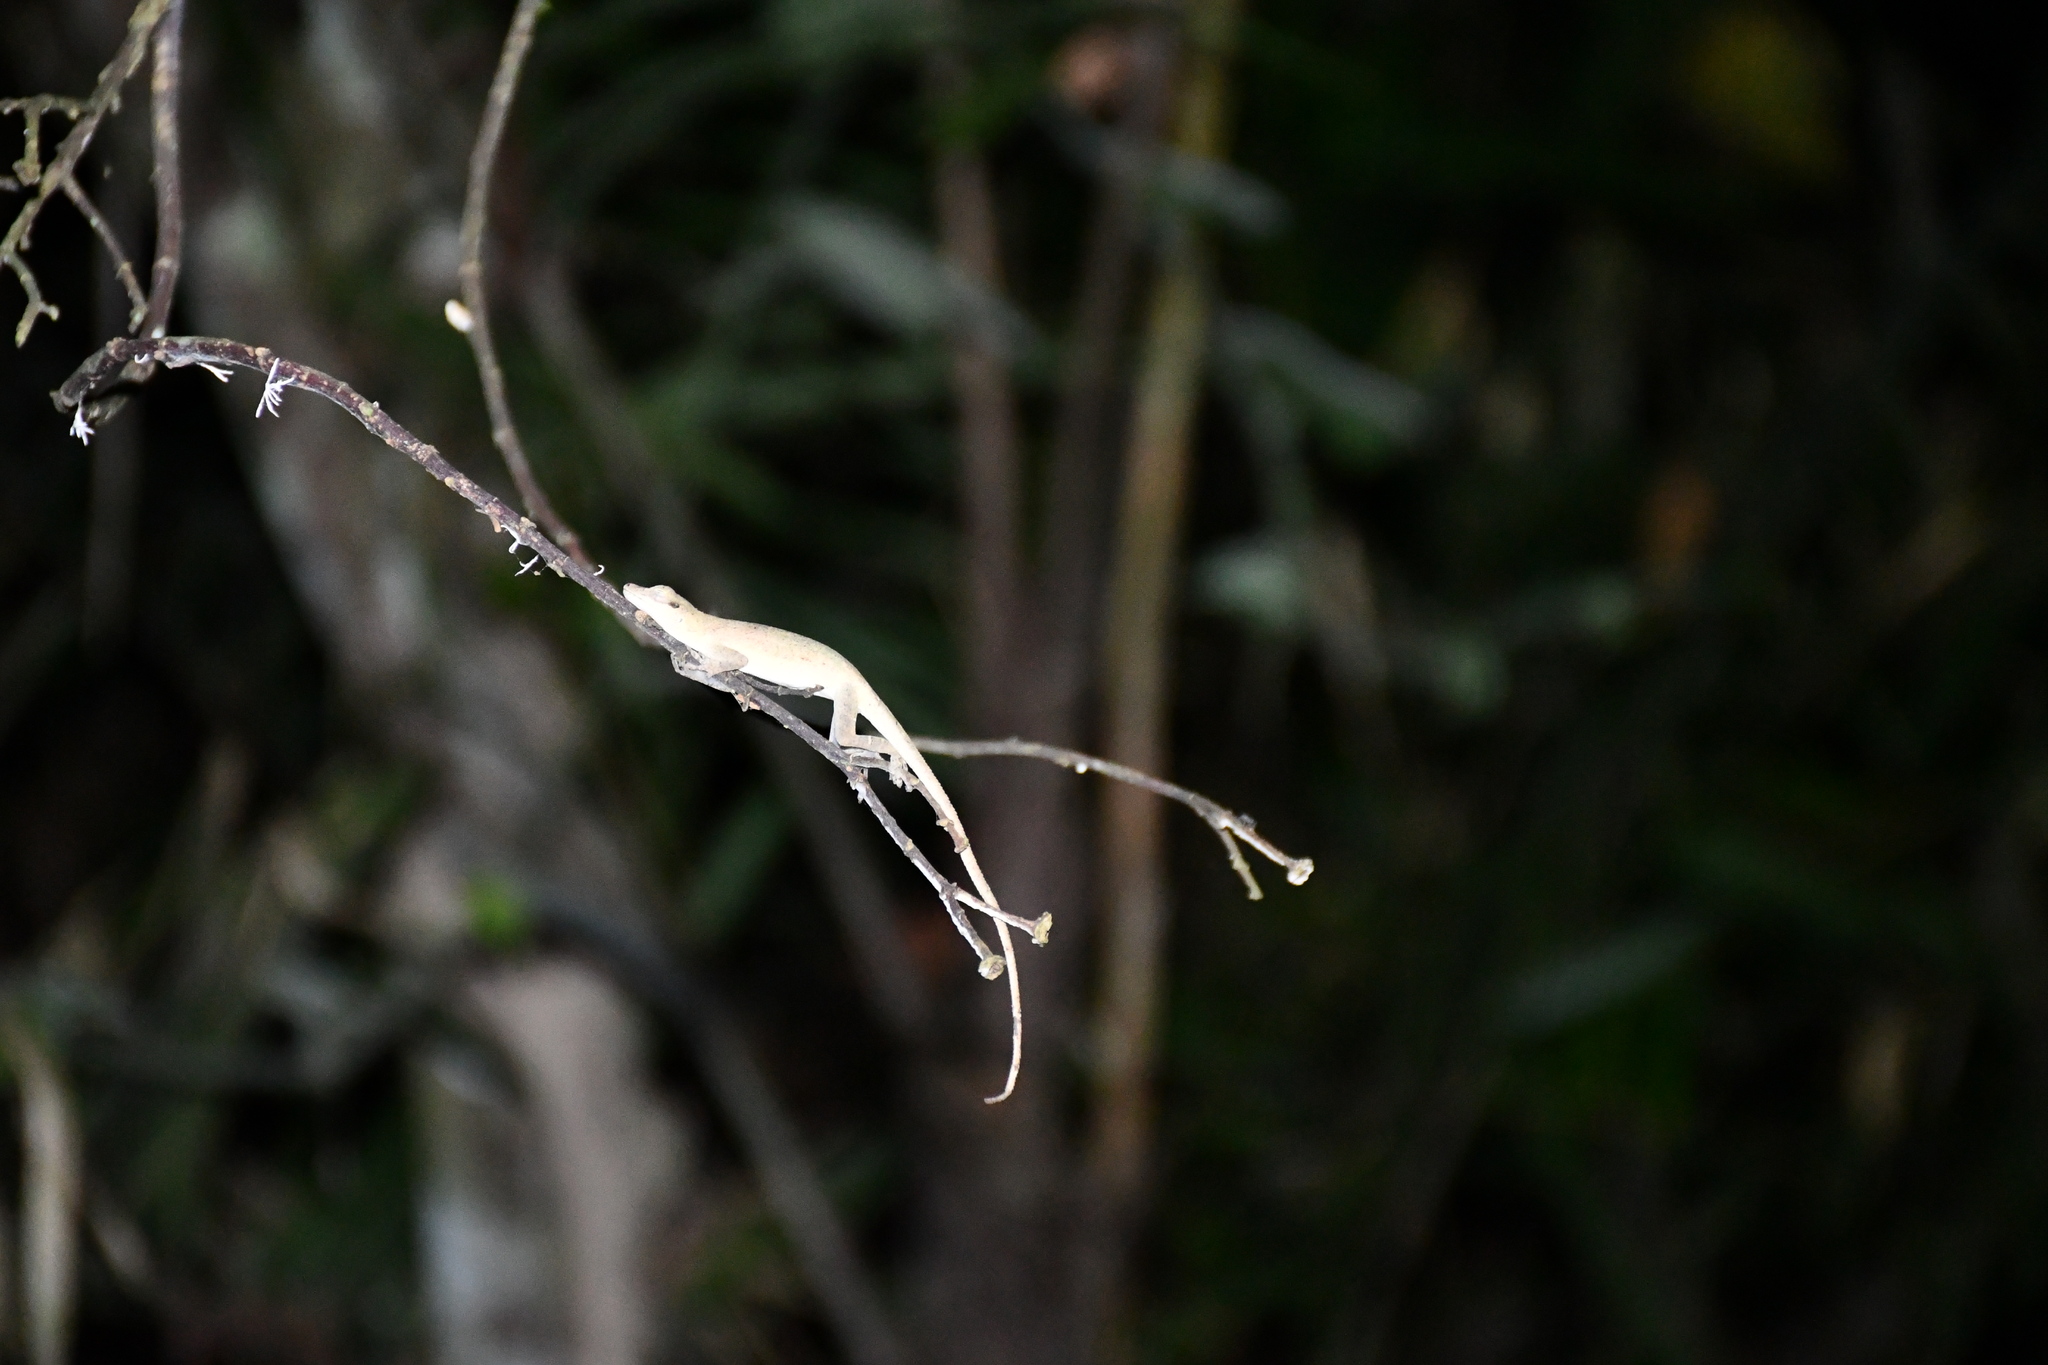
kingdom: Animalia
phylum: Chordata
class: Squamata
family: Dactyloidae
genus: Anolis
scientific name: Anolis fuscoauratus
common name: Brown-eared anole
